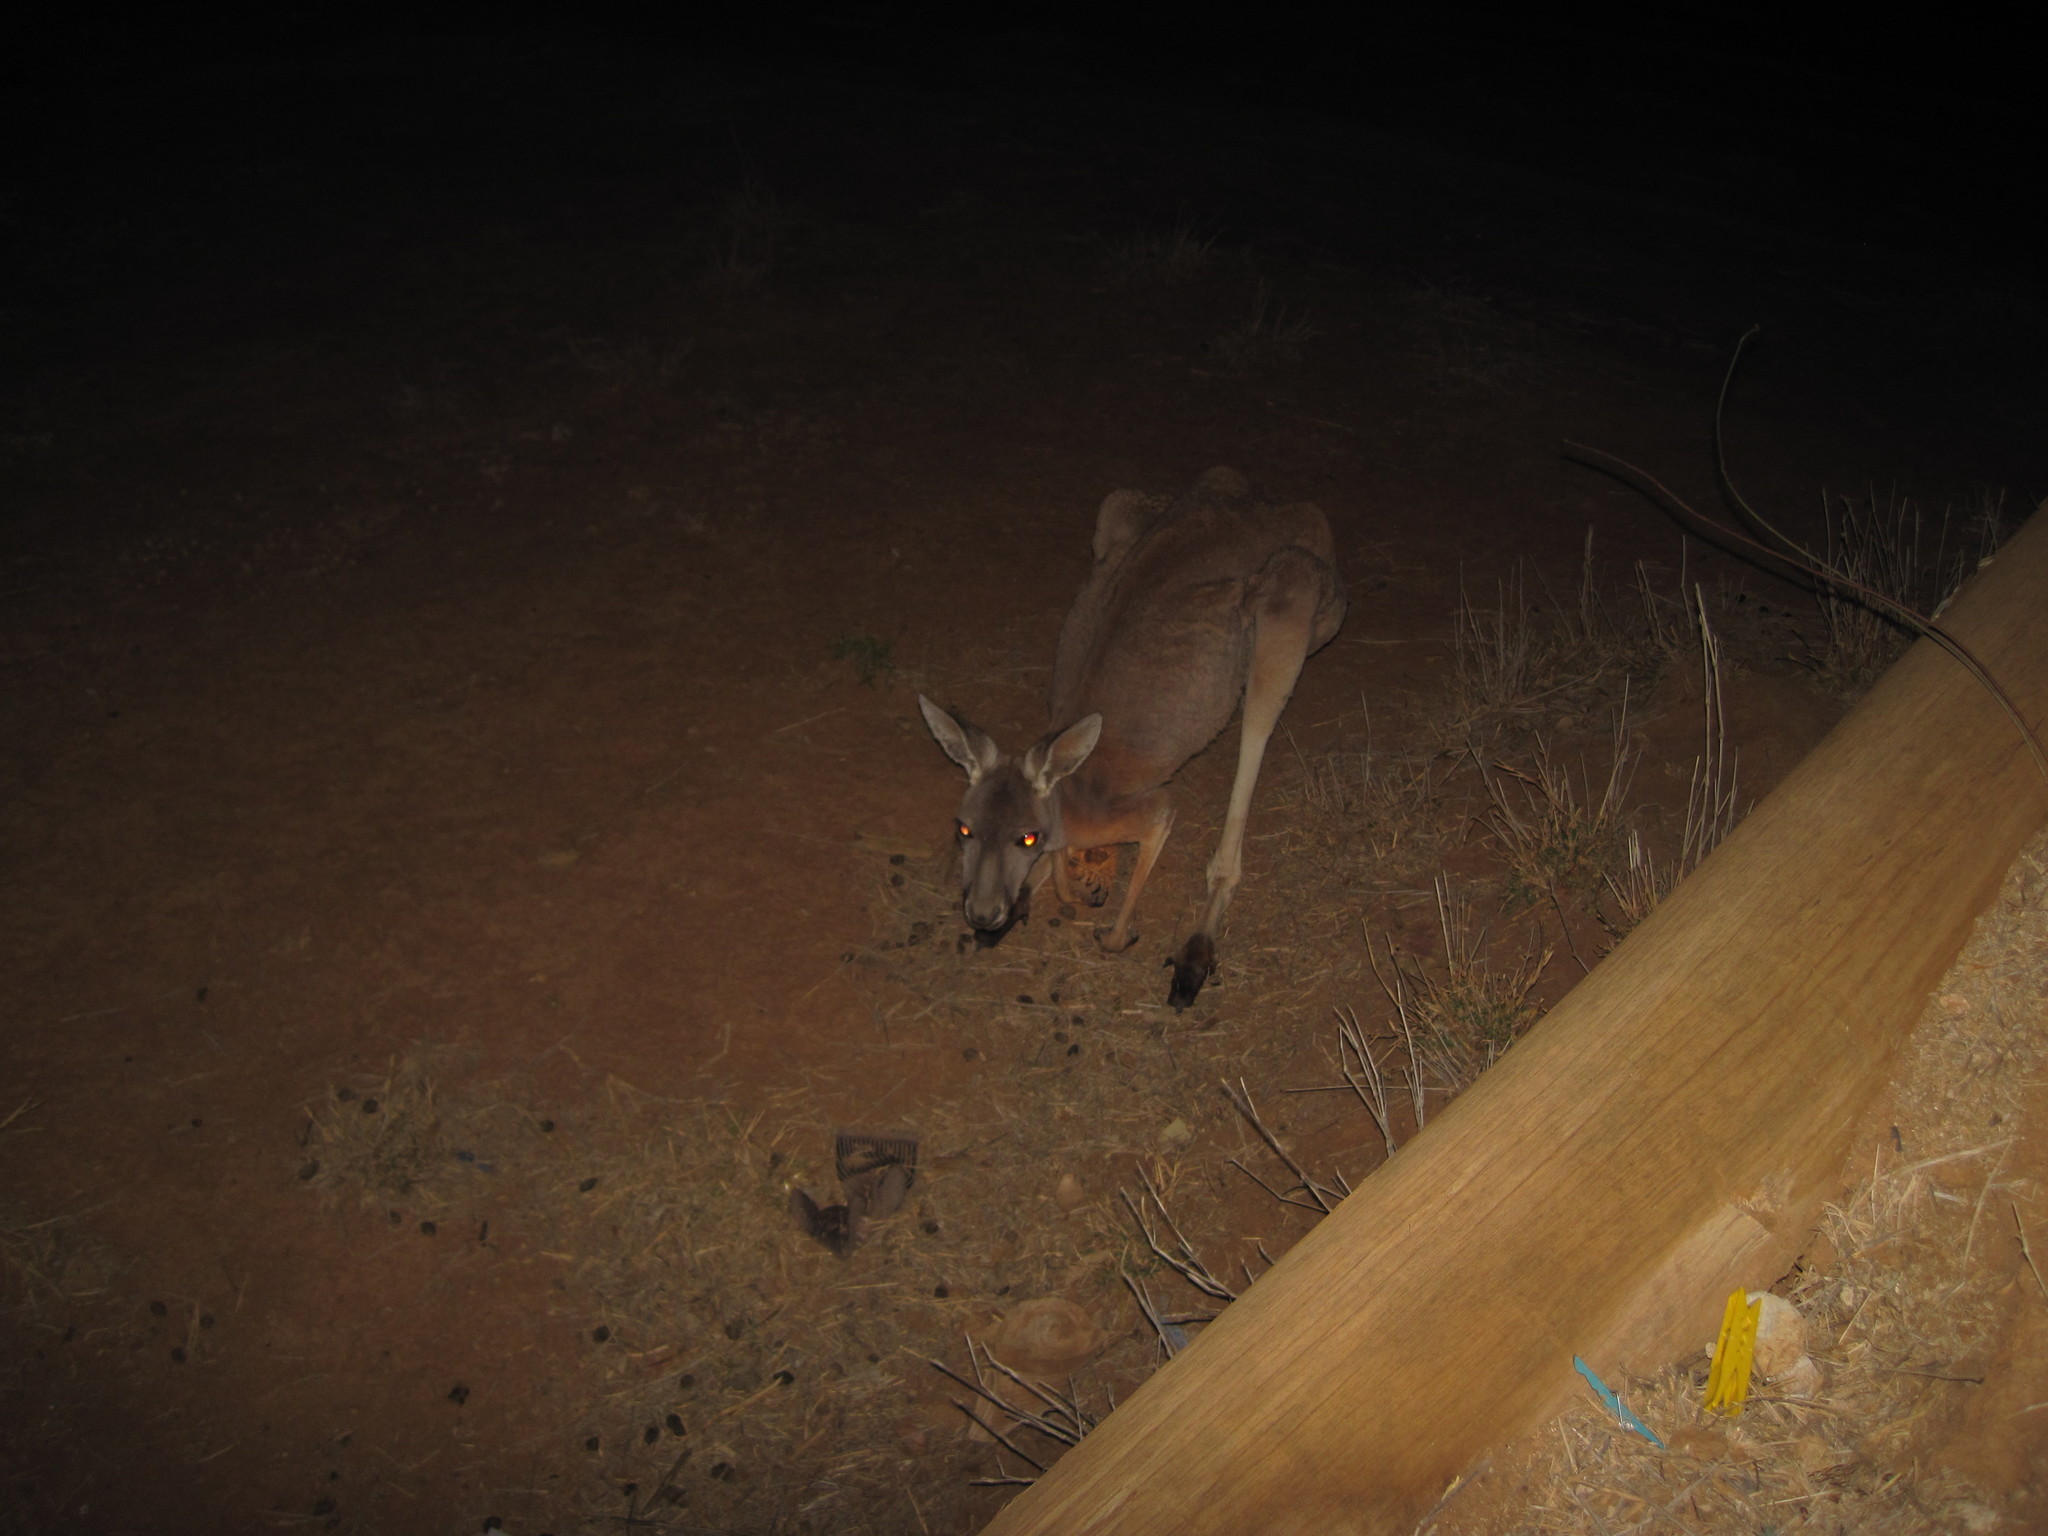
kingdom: Animalia
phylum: Chordata
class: Mammalia
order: Diprotodontia
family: Macropodidae
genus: Macropus
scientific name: Macropus rufus
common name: Red kangaroo
